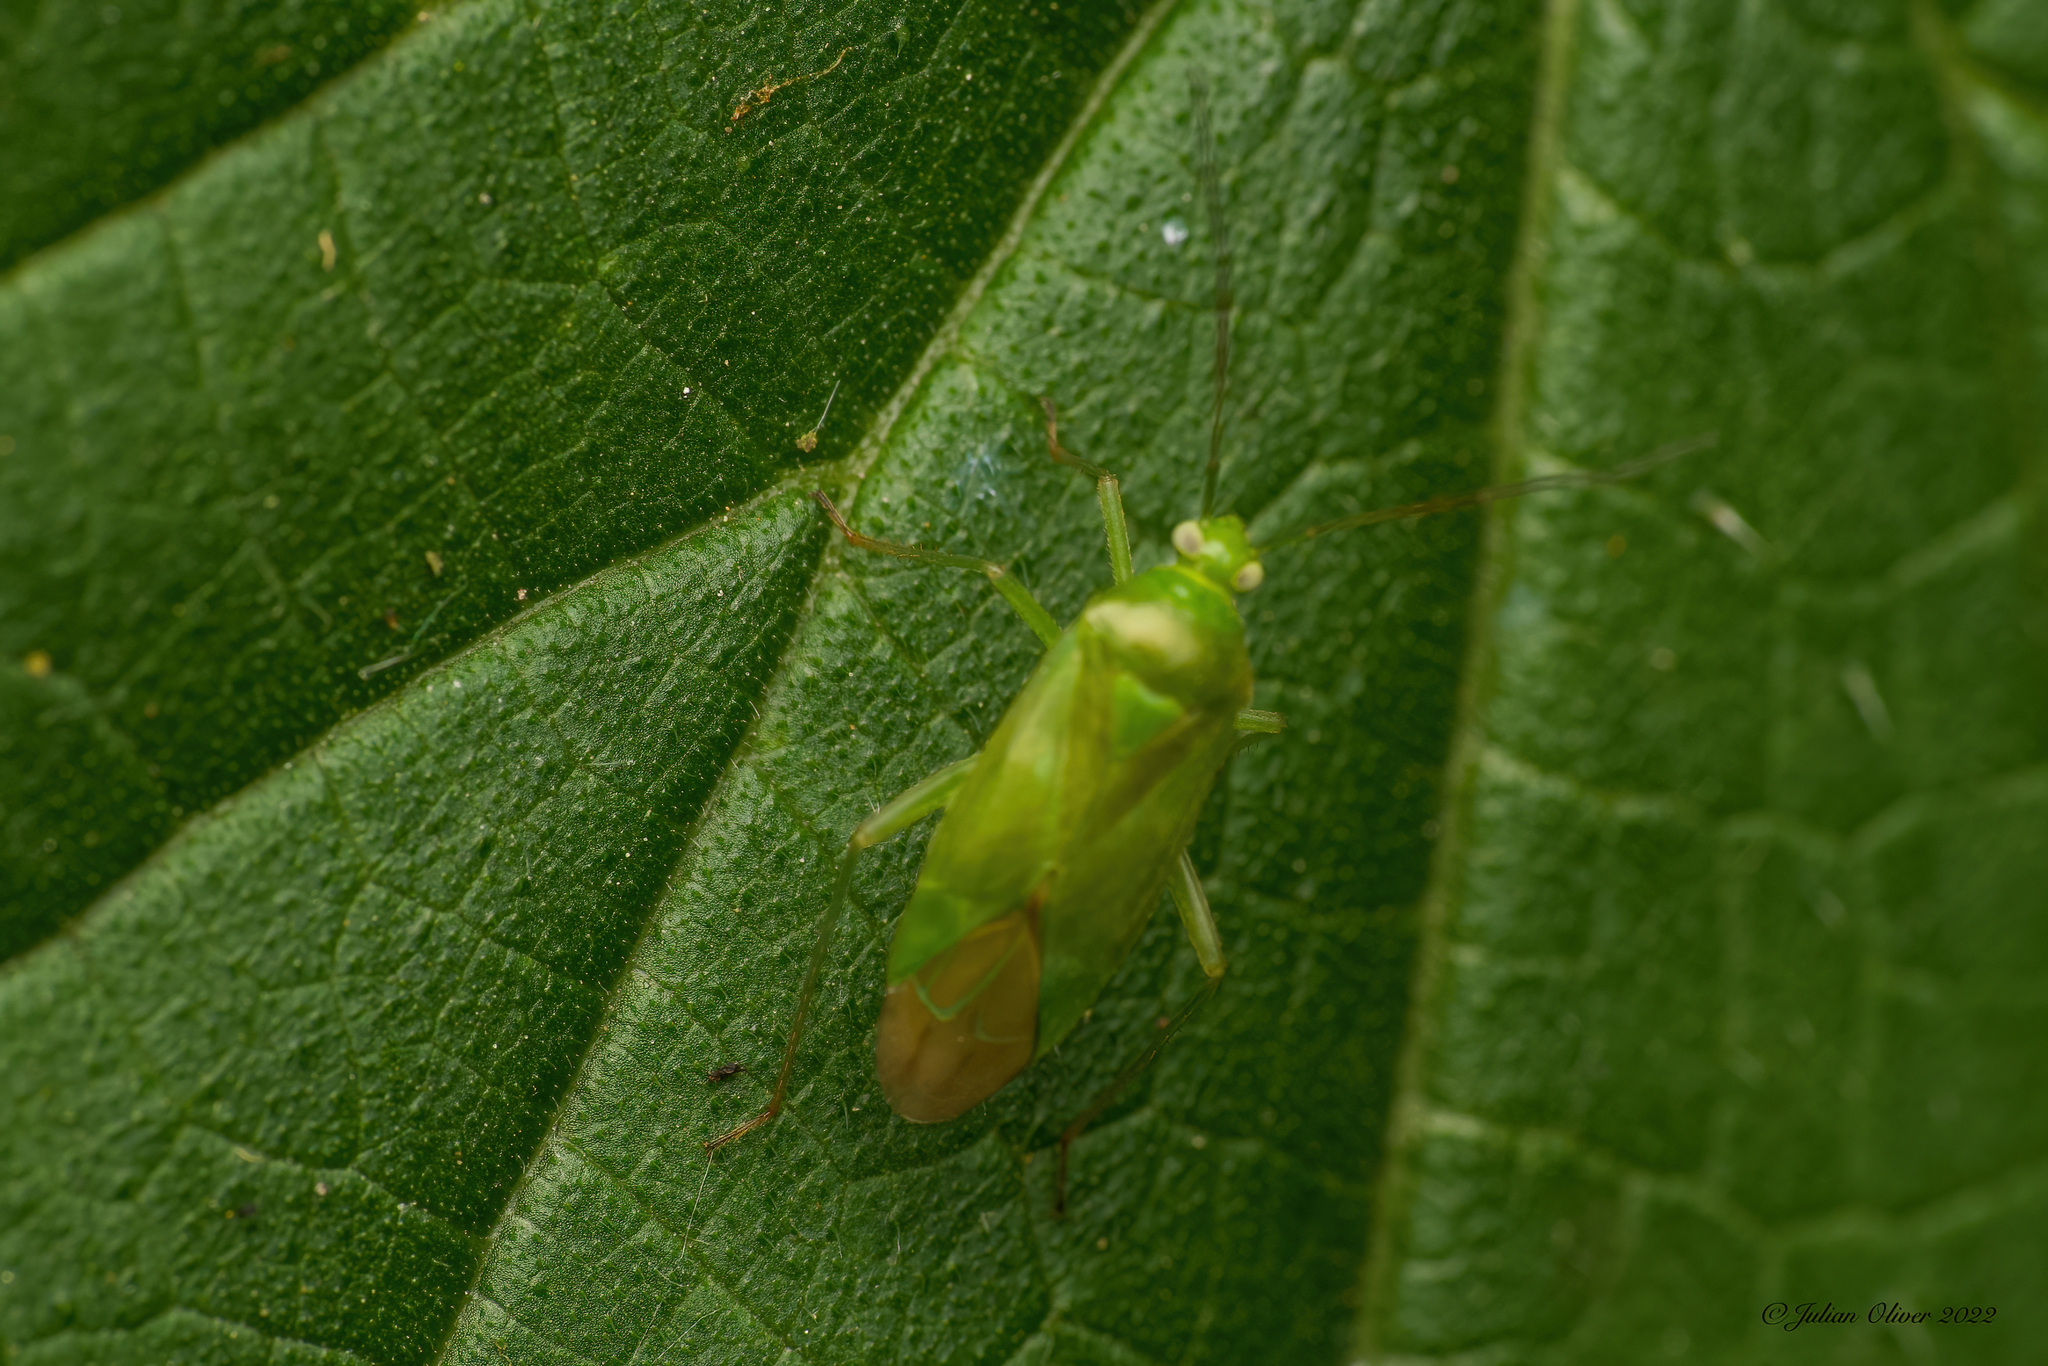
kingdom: Animalia
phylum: Arthropoda
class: Insecta
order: Hemiptera
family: Miridae
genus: Lygocoris
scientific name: Lygocoris pabulinus
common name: Common green capsid
